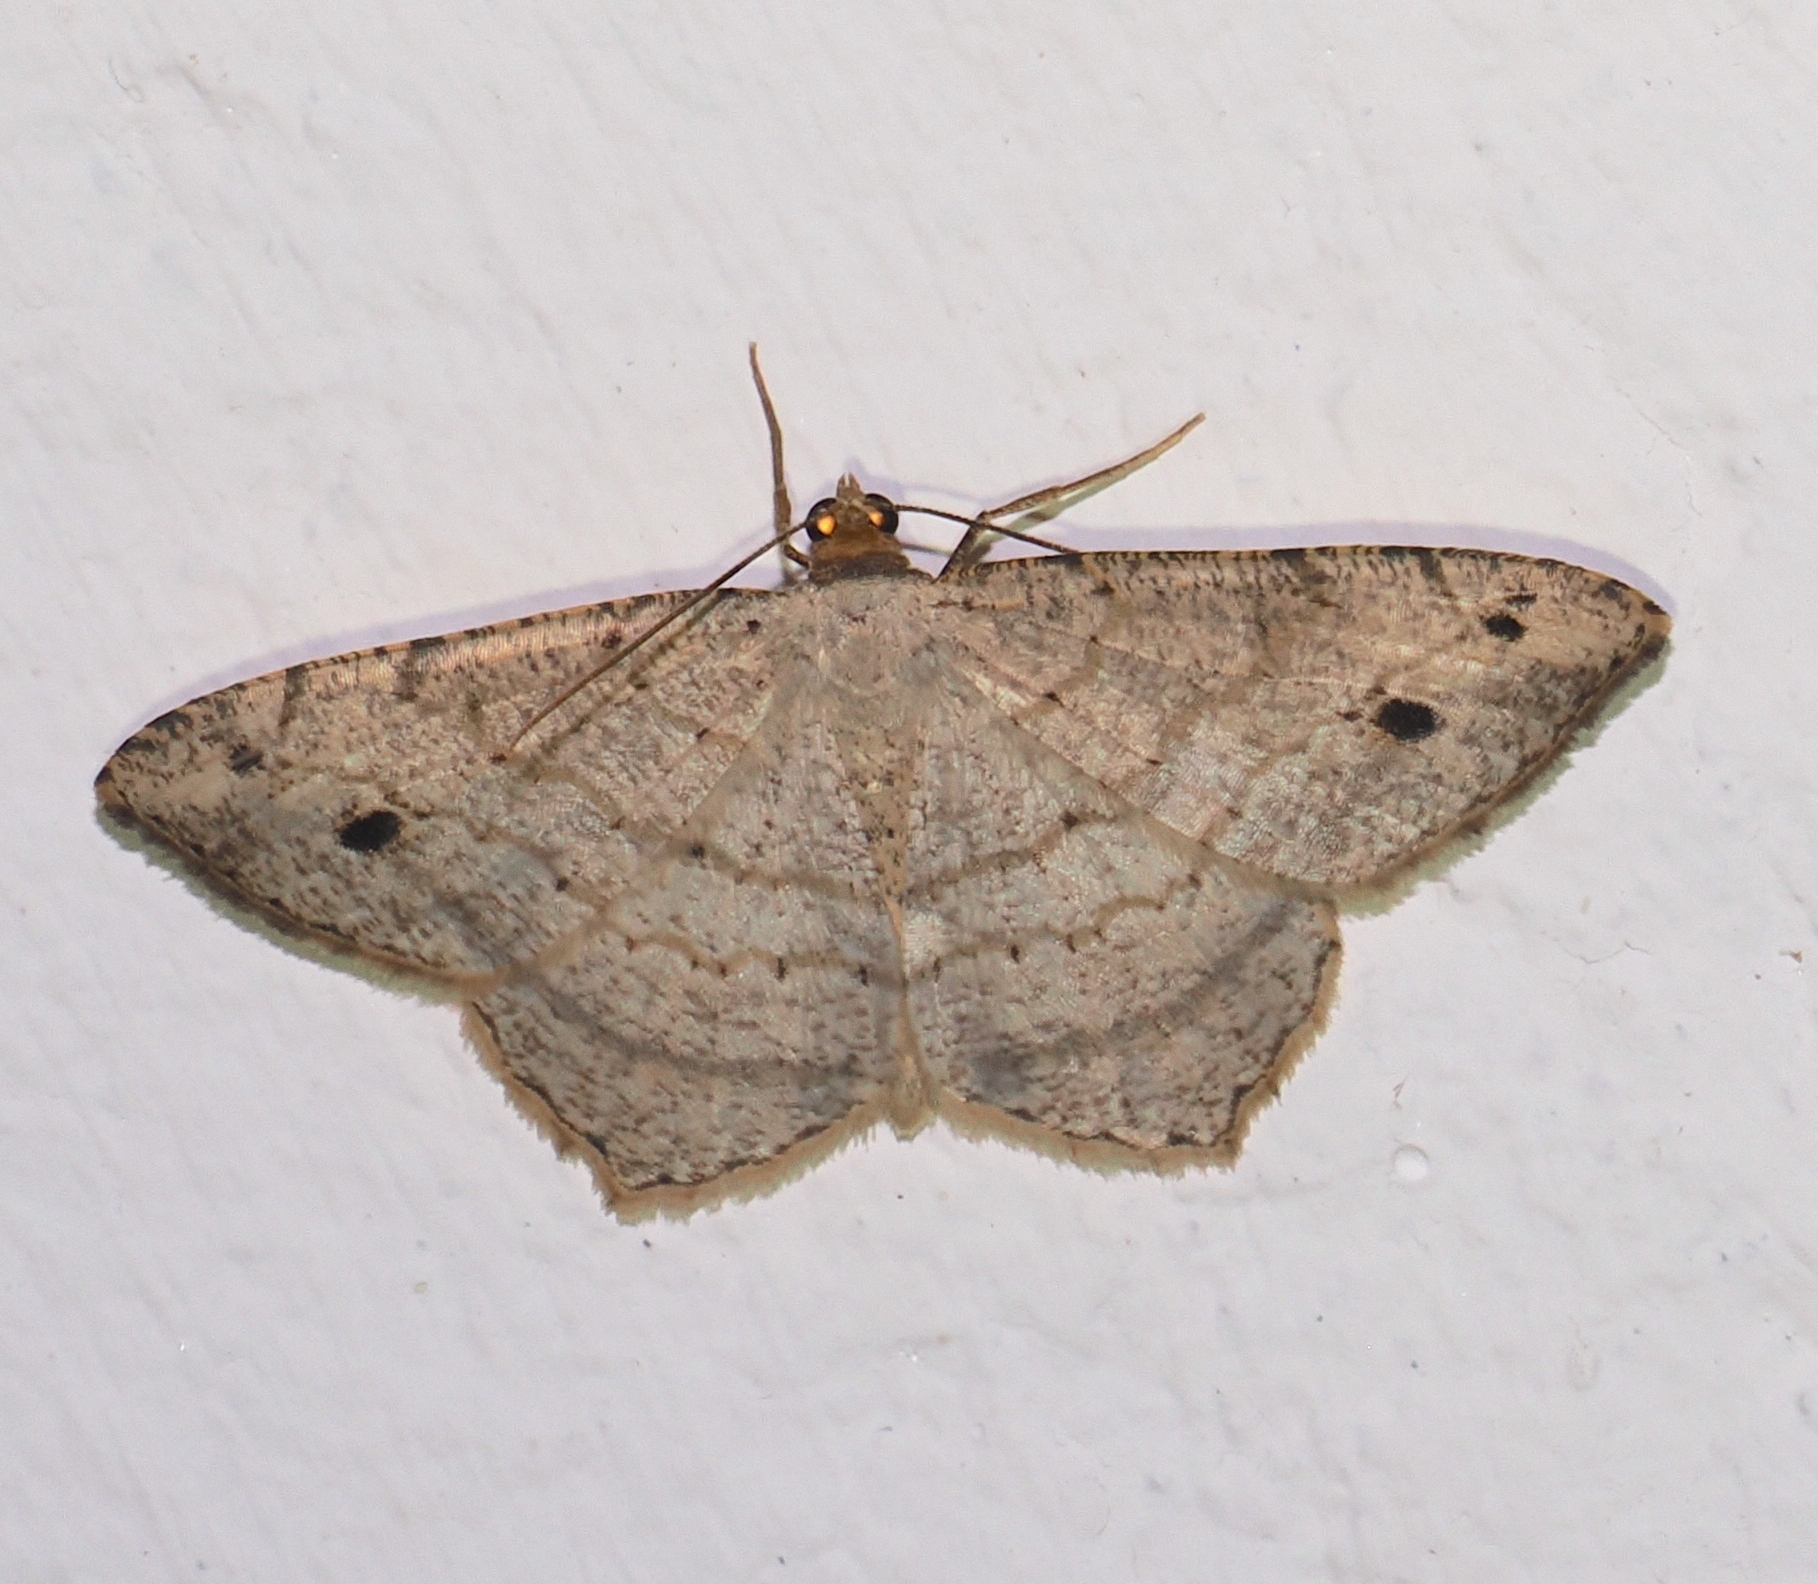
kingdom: Animalia
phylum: Arthropoda
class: Insecta
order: Lepidoptera
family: Geometridae
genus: Macaria
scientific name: Macaria abydata
